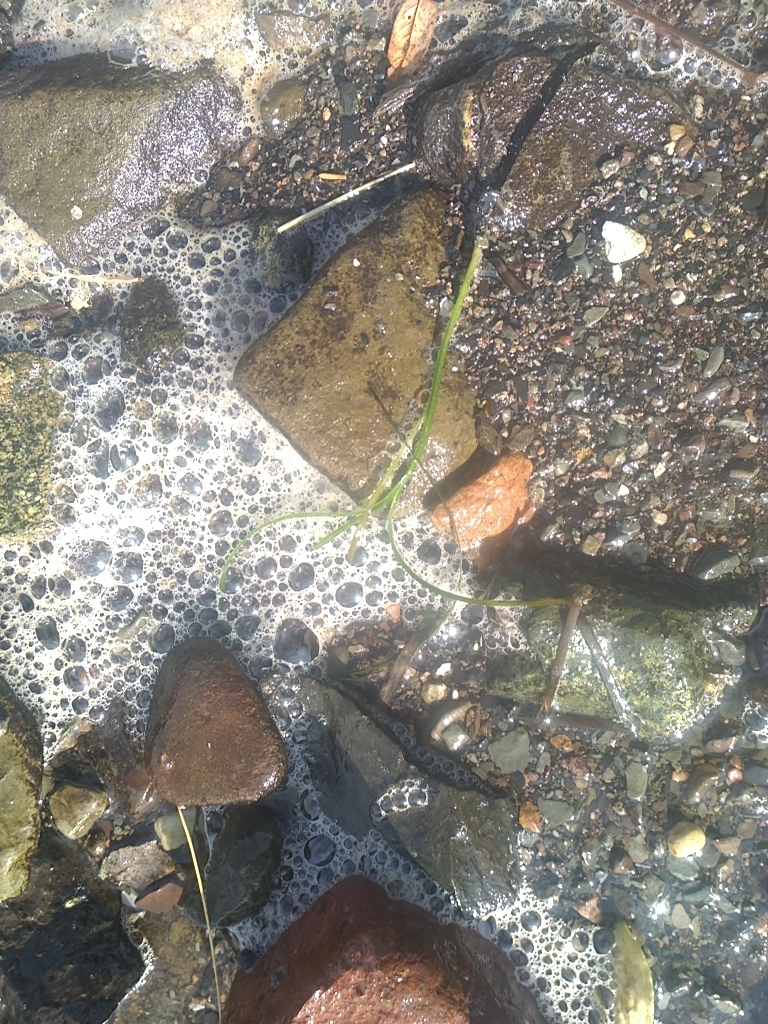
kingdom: Plantae
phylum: Tracheophyta
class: Liliopsida
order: Alismatales
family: Zosteraceae
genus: Zostera
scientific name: Zostera marina
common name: Eelgrass
